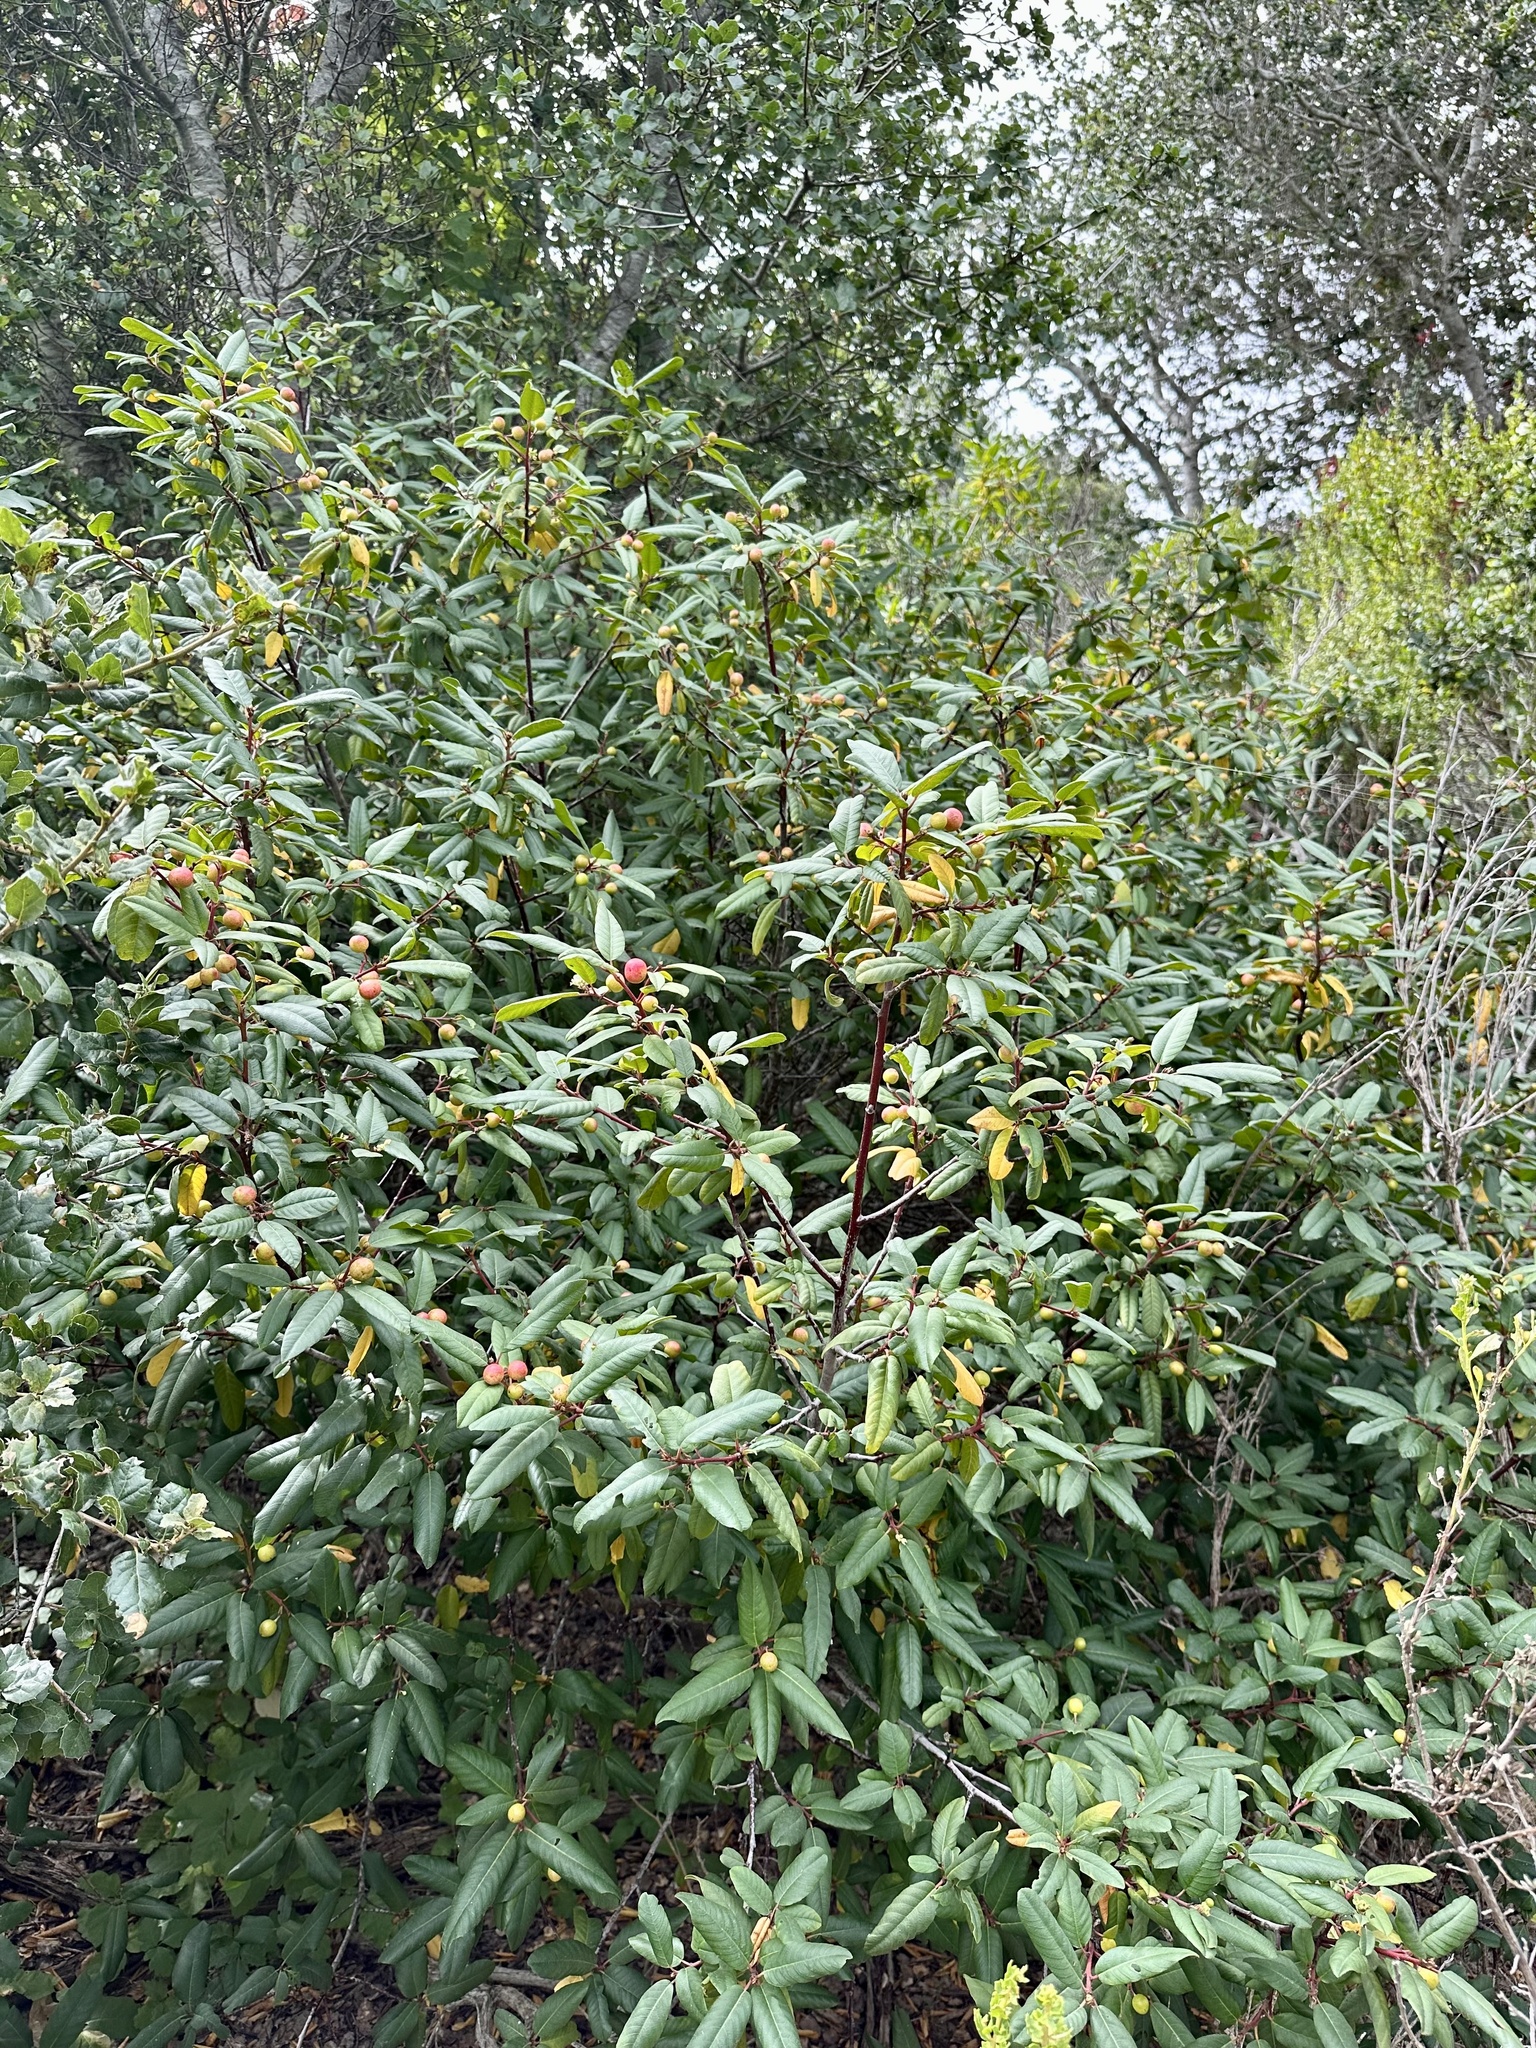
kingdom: Plantae
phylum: Tracheophyta
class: Magnoliopsida
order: Rosales
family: Rhamnaceae
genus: Frangula
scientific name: Frangula californica
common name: California buckthorn
